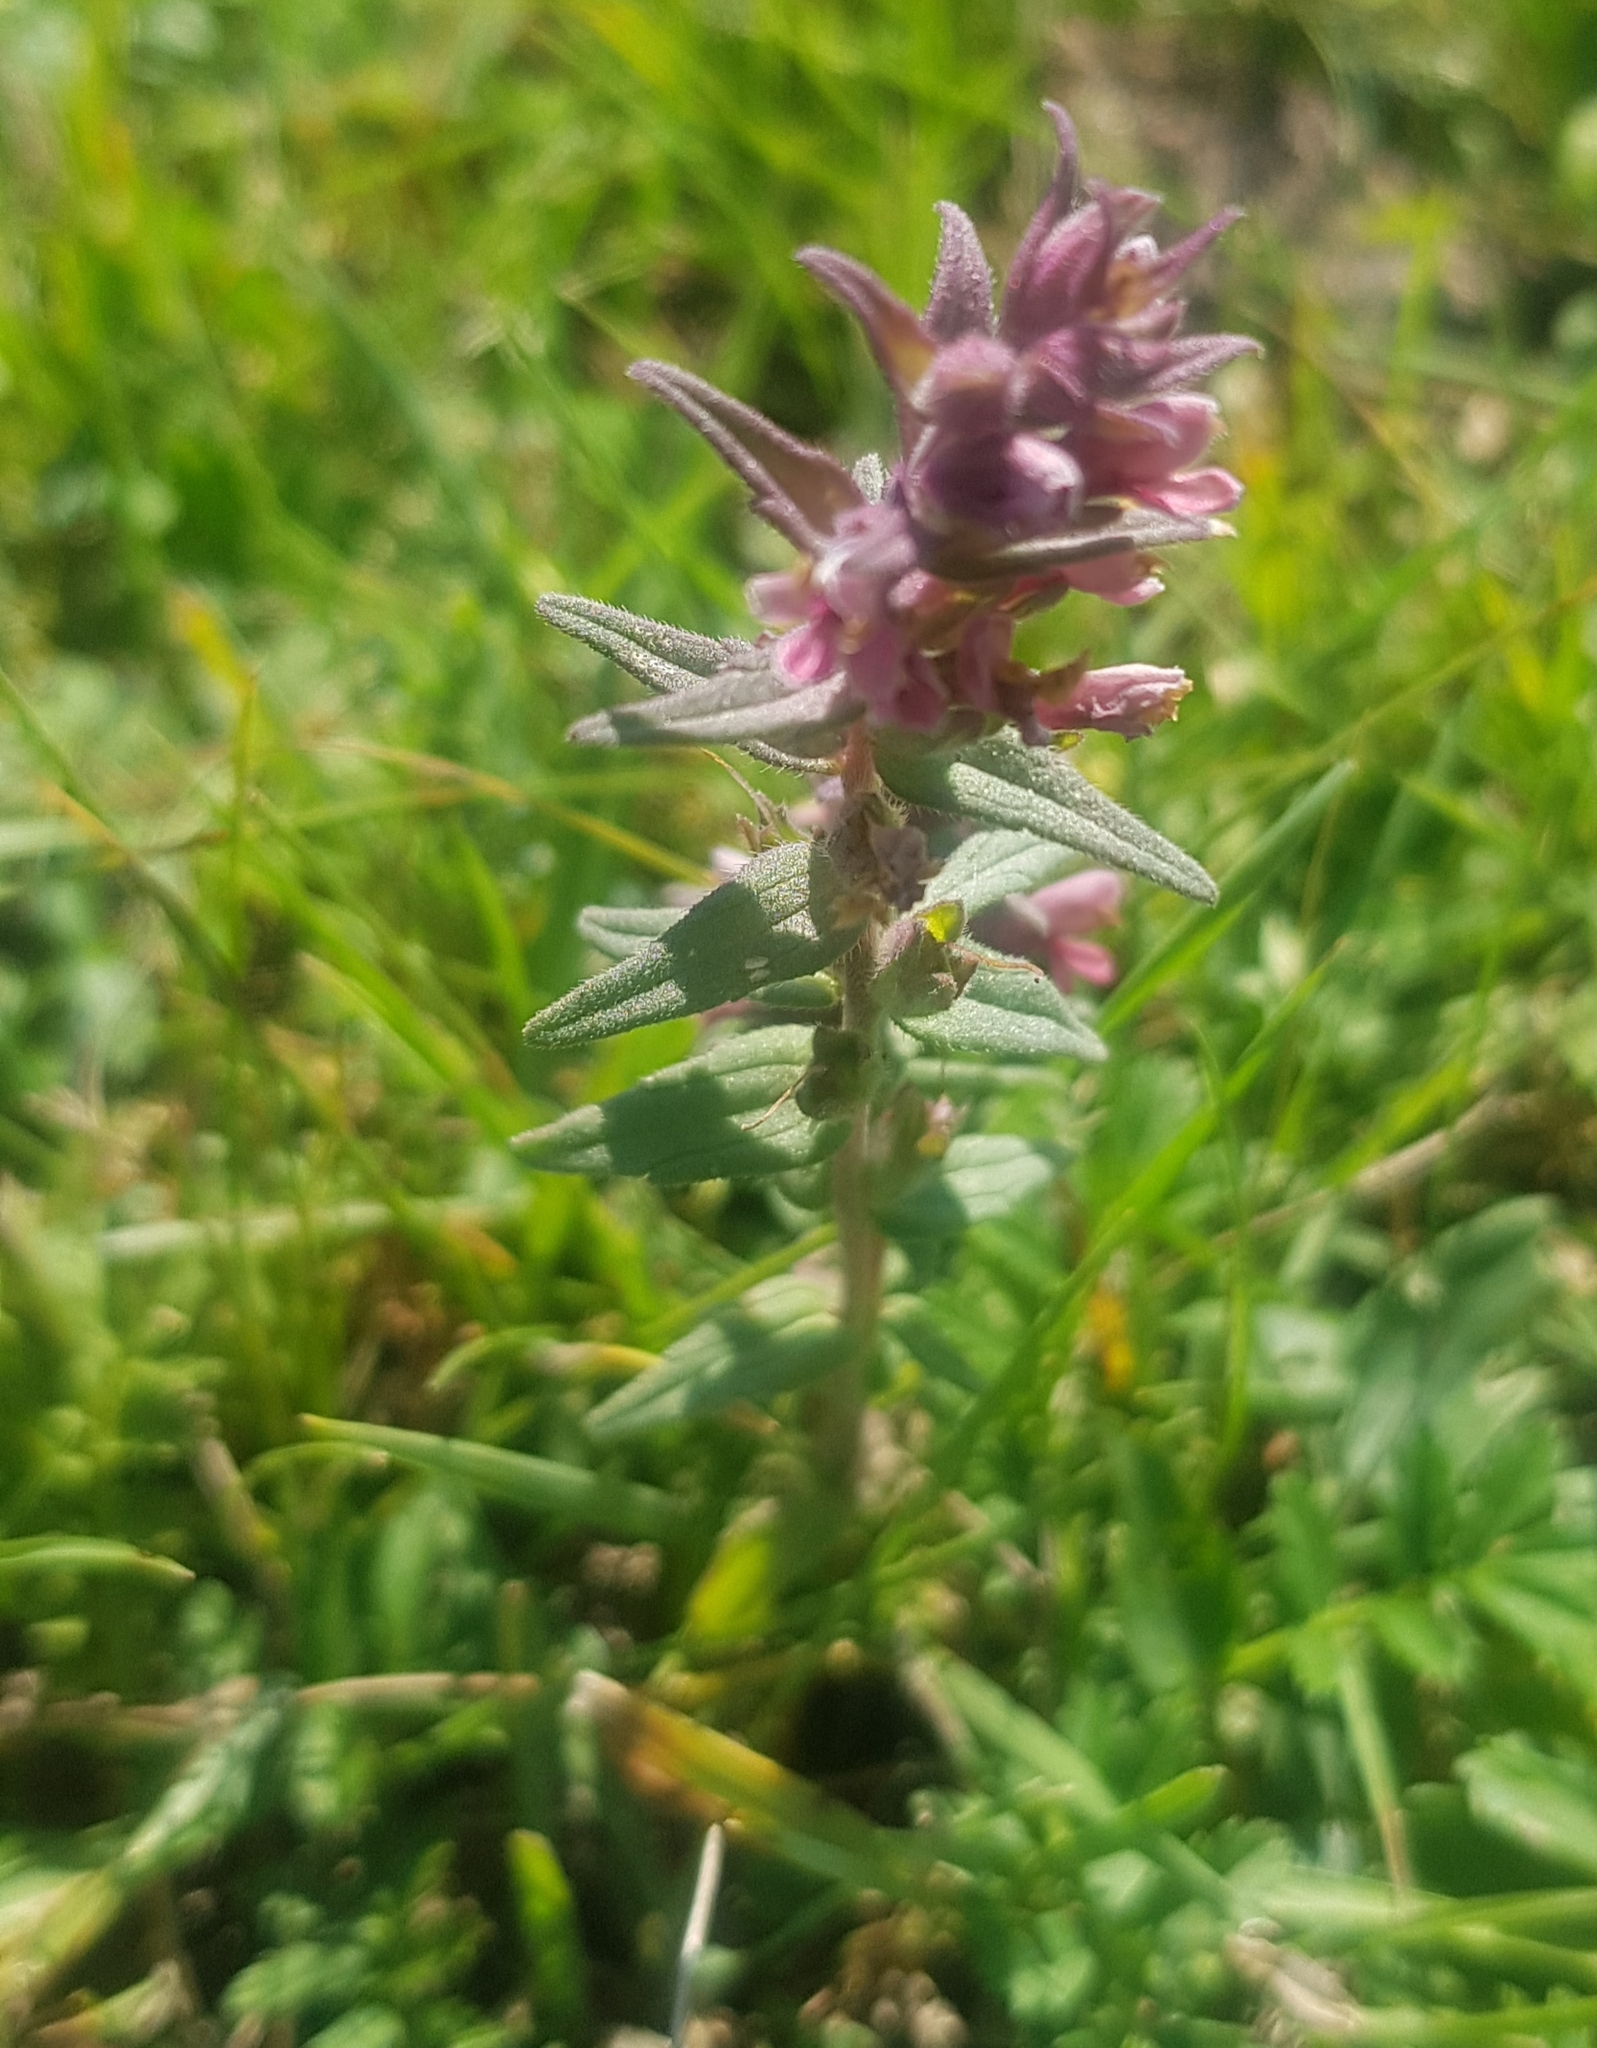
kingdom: Plantae
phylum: Tracheophyta
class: Magnoliopsida
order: Lamiales
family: Orobanchaceae
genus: Odontites
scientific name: Odontites vulgaris
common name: Broomrape
